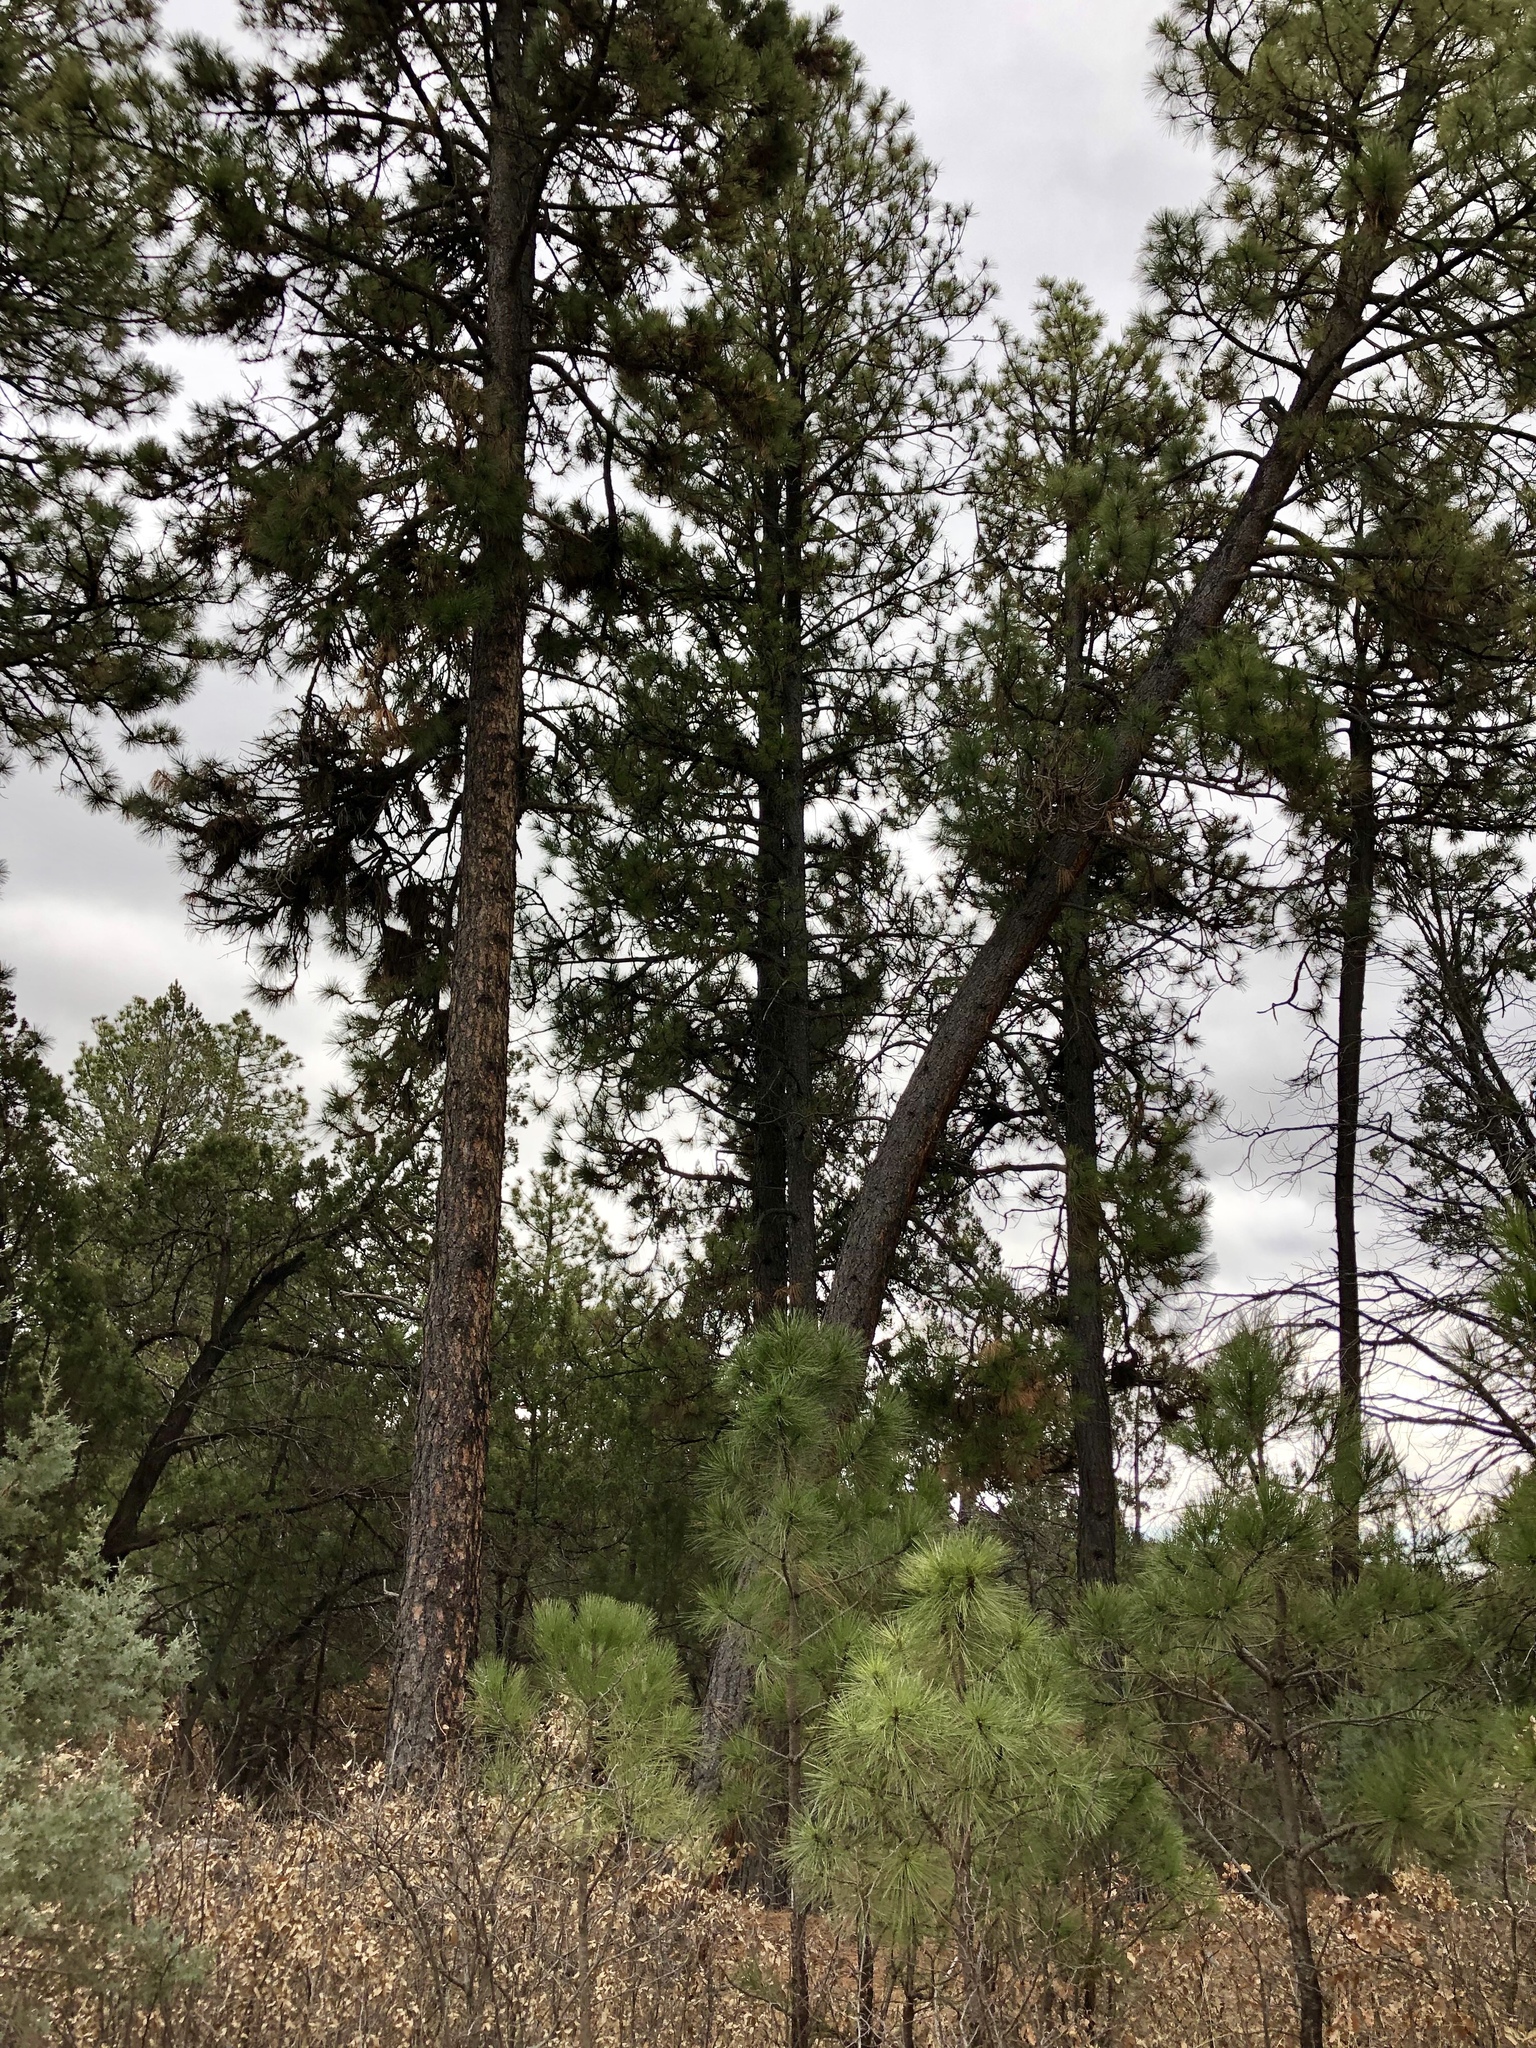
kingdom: Plantae
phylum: Tracheophyta
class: Pinopsida
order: Pinales
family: Pinaceae
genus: Pinus
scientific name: Pinus ponderosa
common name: Western yellow-pine
